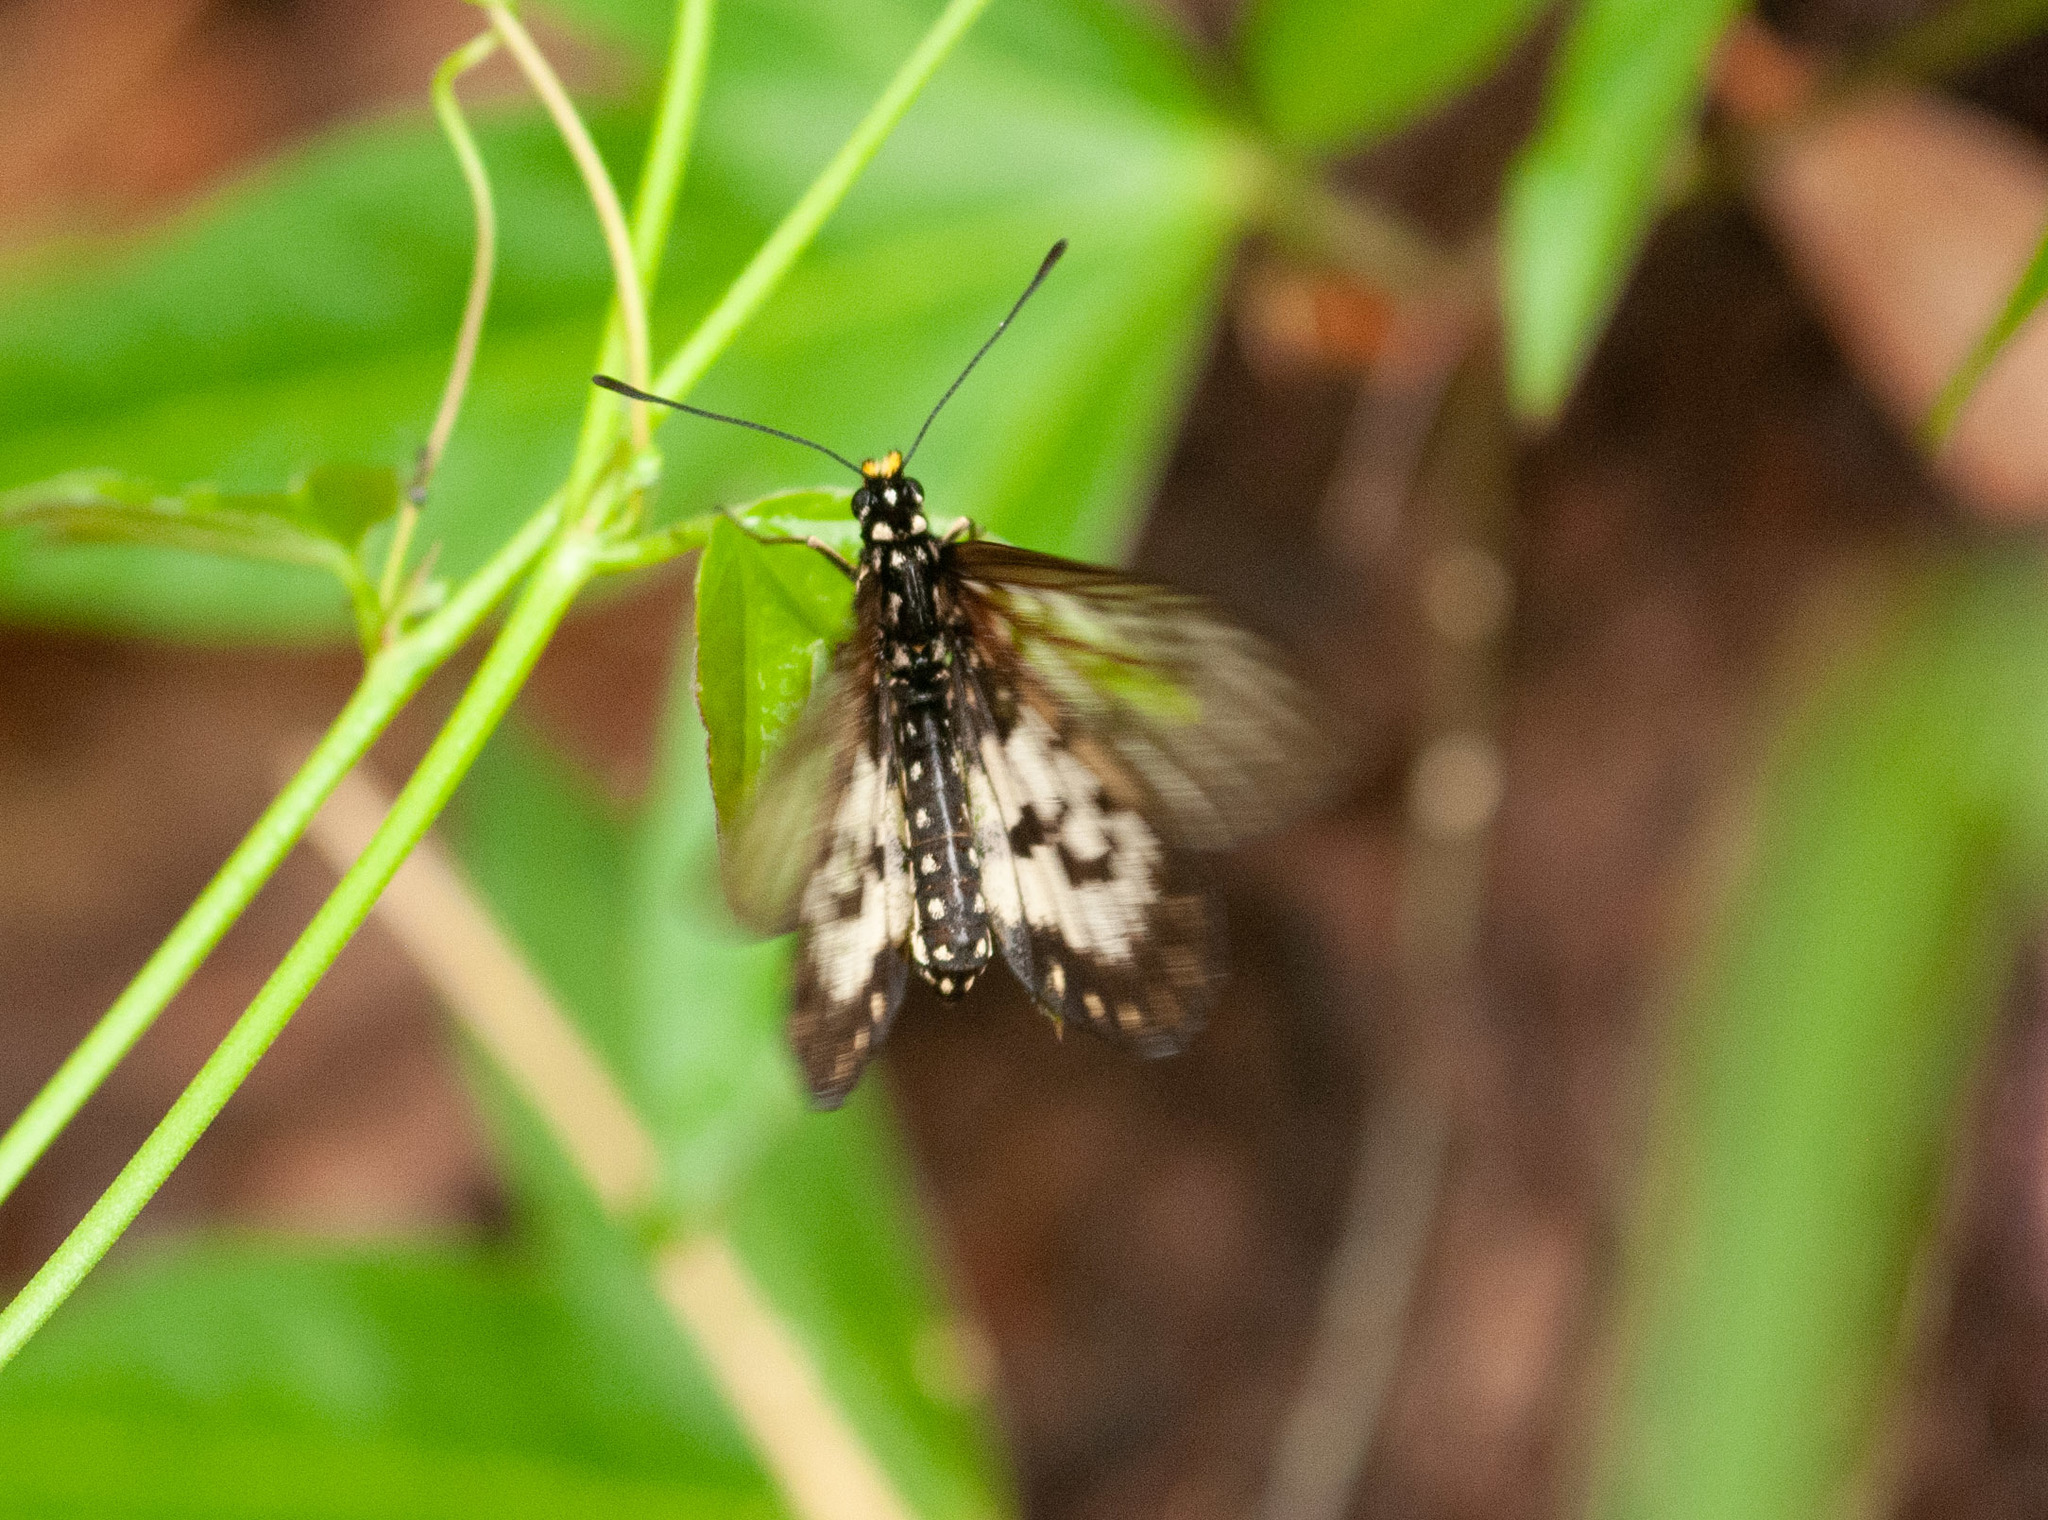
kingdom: Animalia
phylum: Arthropoda
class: Insecta
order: Lepidoptera
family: Nymphalidae
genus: Acraea
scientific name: Acraea andromacha
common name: Glasswing
